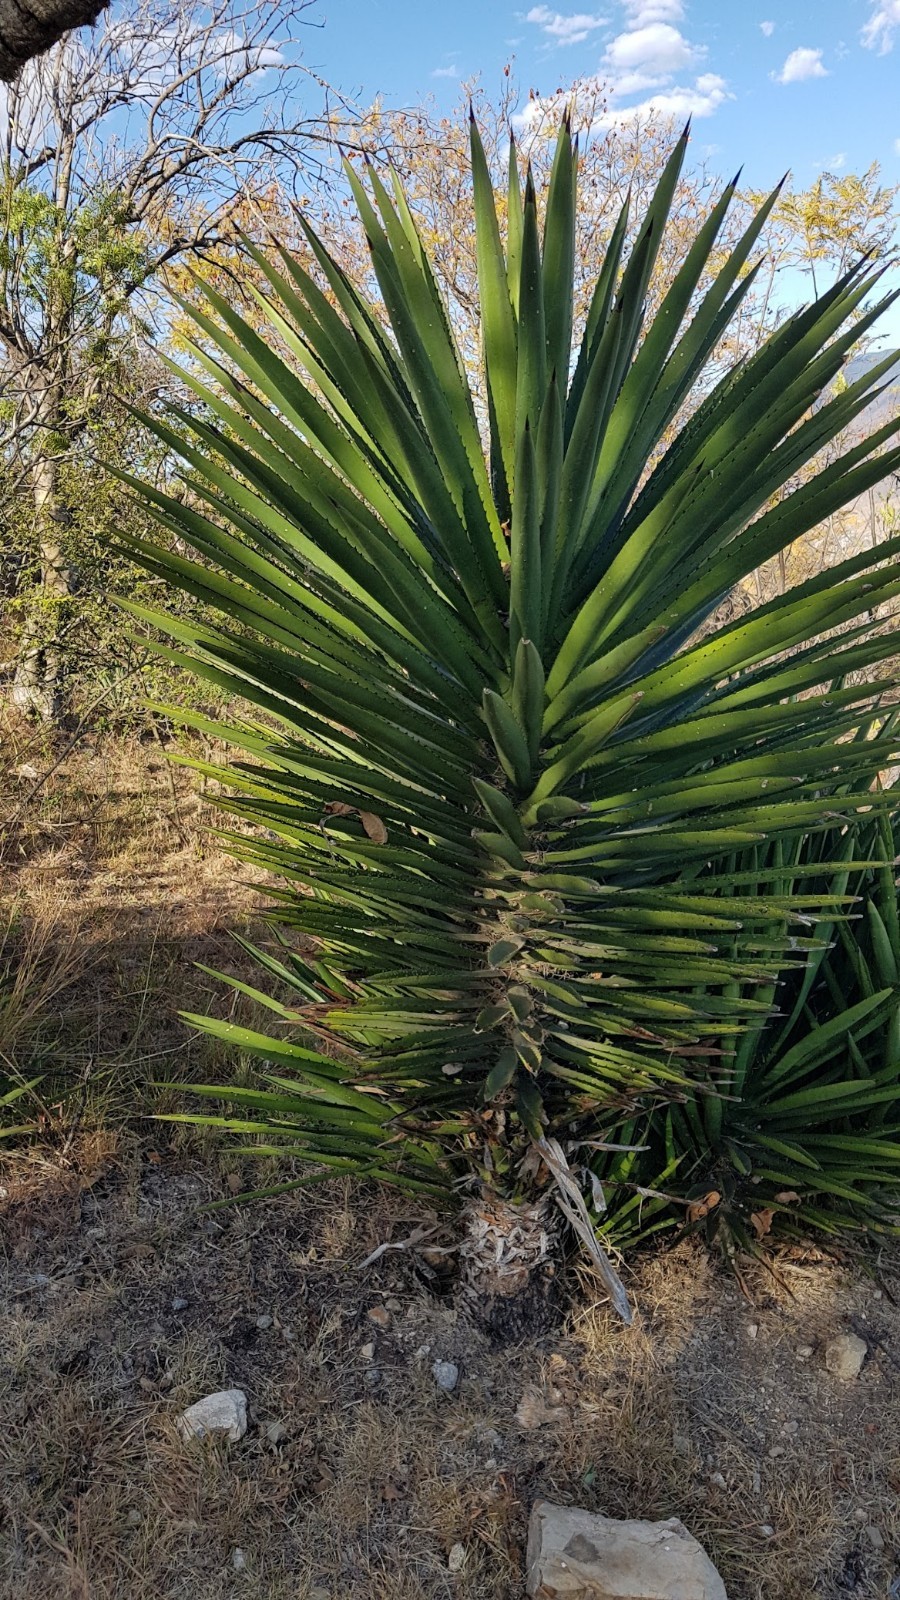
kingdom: Plantae
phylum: Tracheophyta
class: Liliopsida
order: Asparagales
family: Asparagaceae
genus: Agave
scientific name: Agave karwinskii
